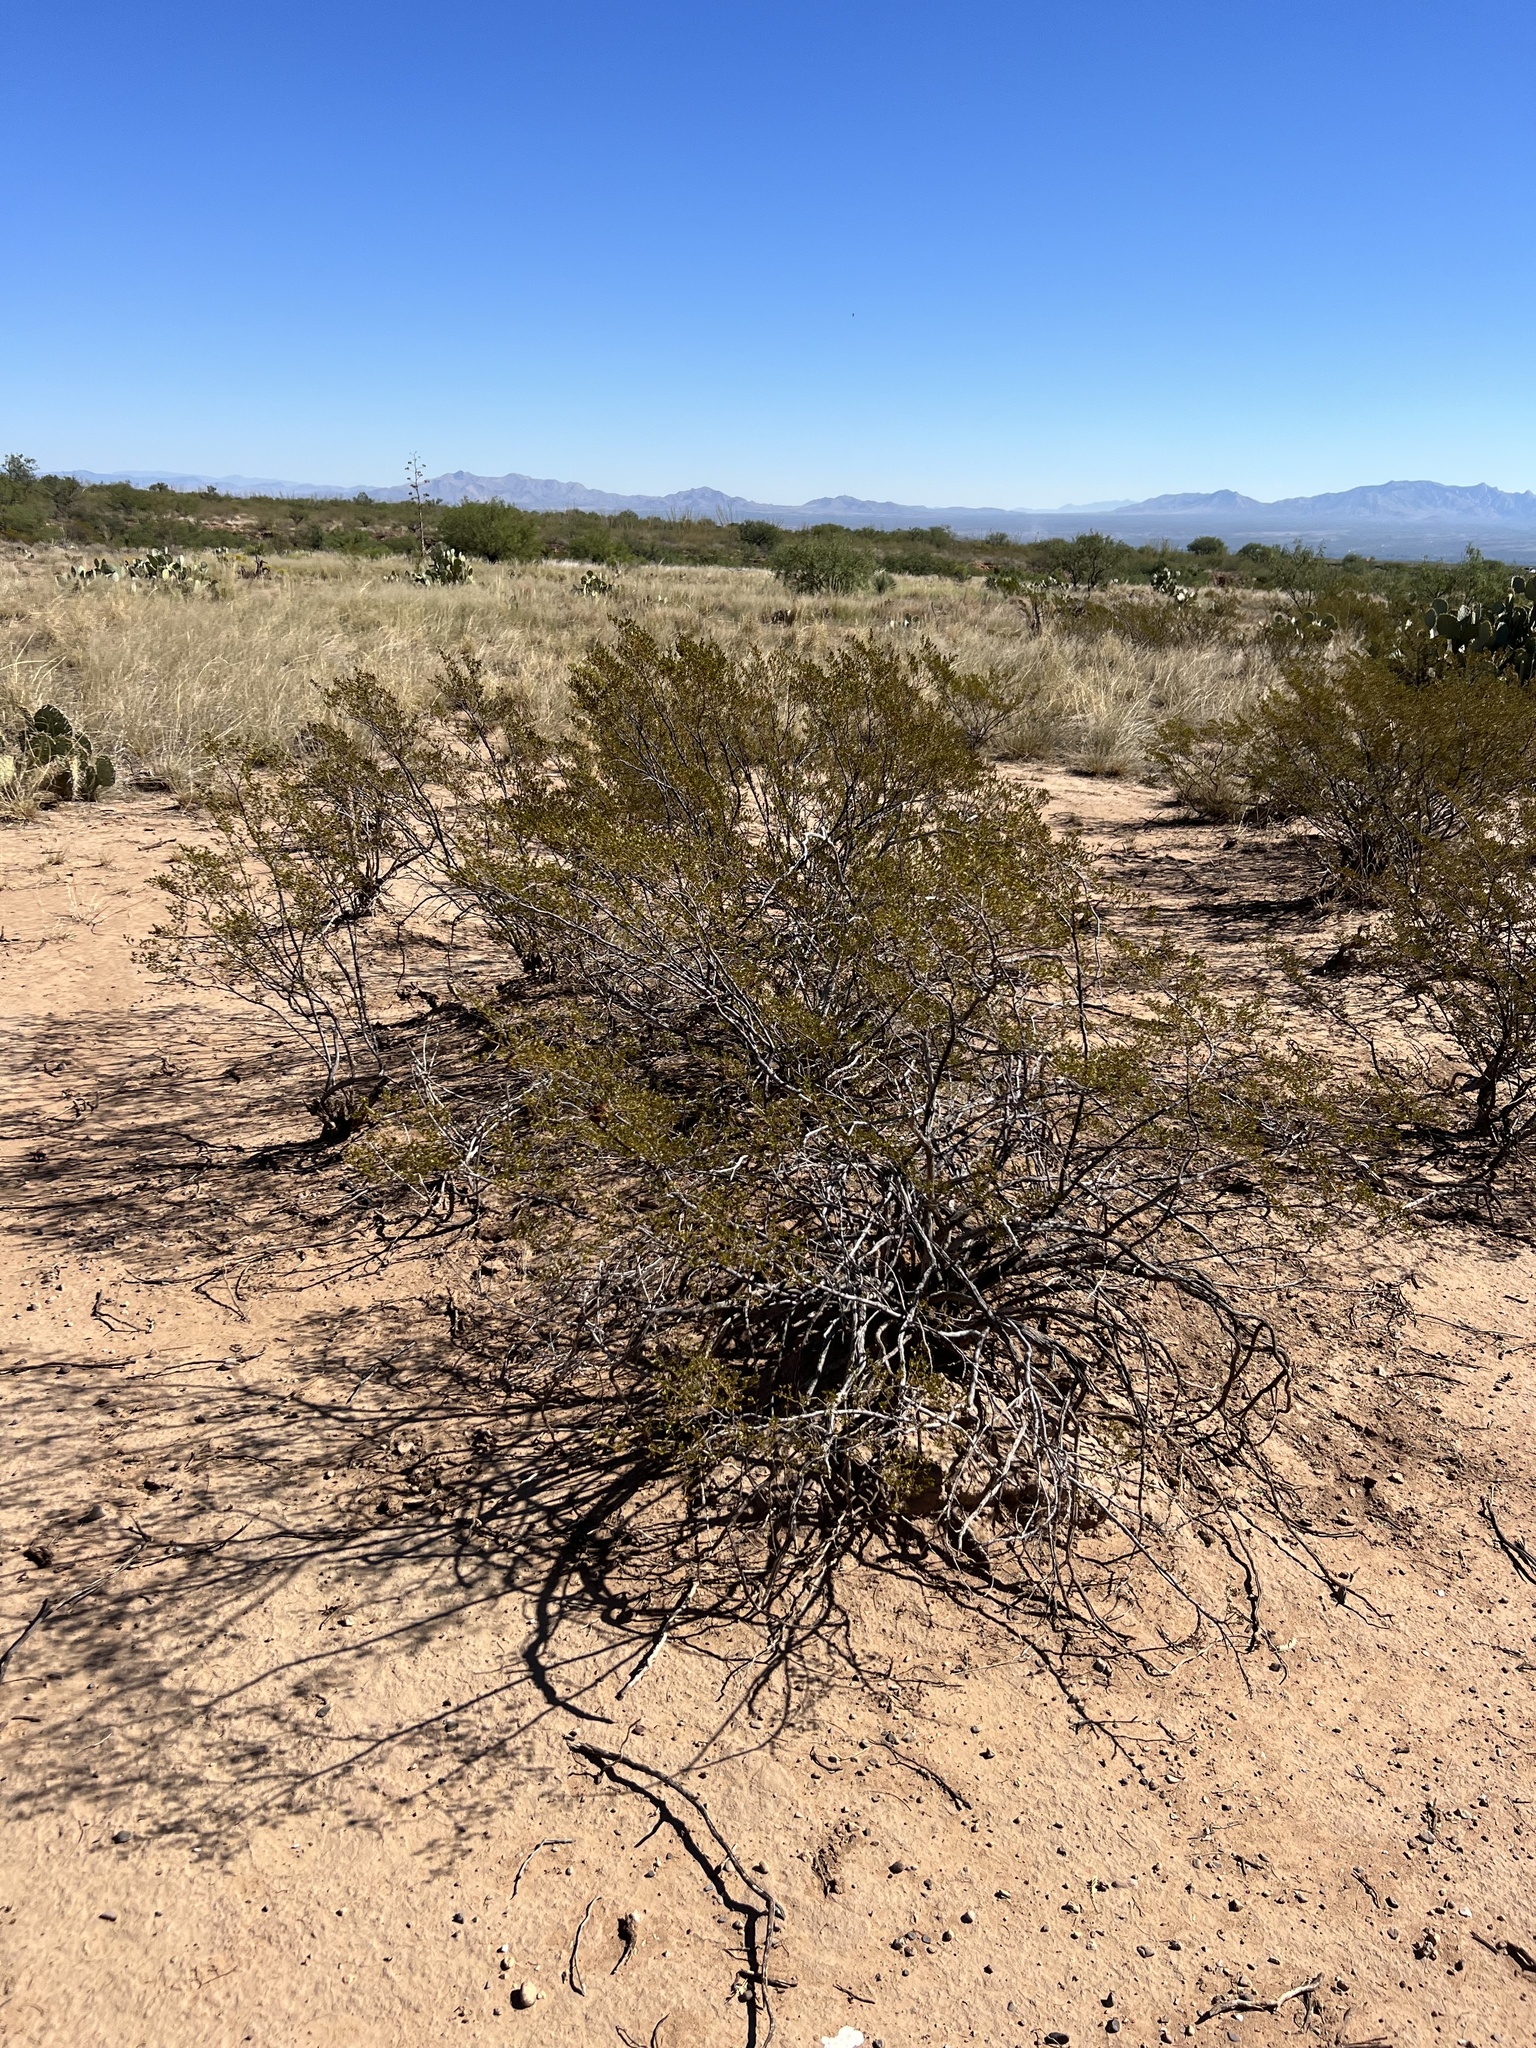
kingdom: Plantae
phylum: Tracheophyta
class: Magnoliopsida
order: Zygophyllales
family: Zygophyllaceae
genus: Larrea
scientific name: Larrea tridentata
